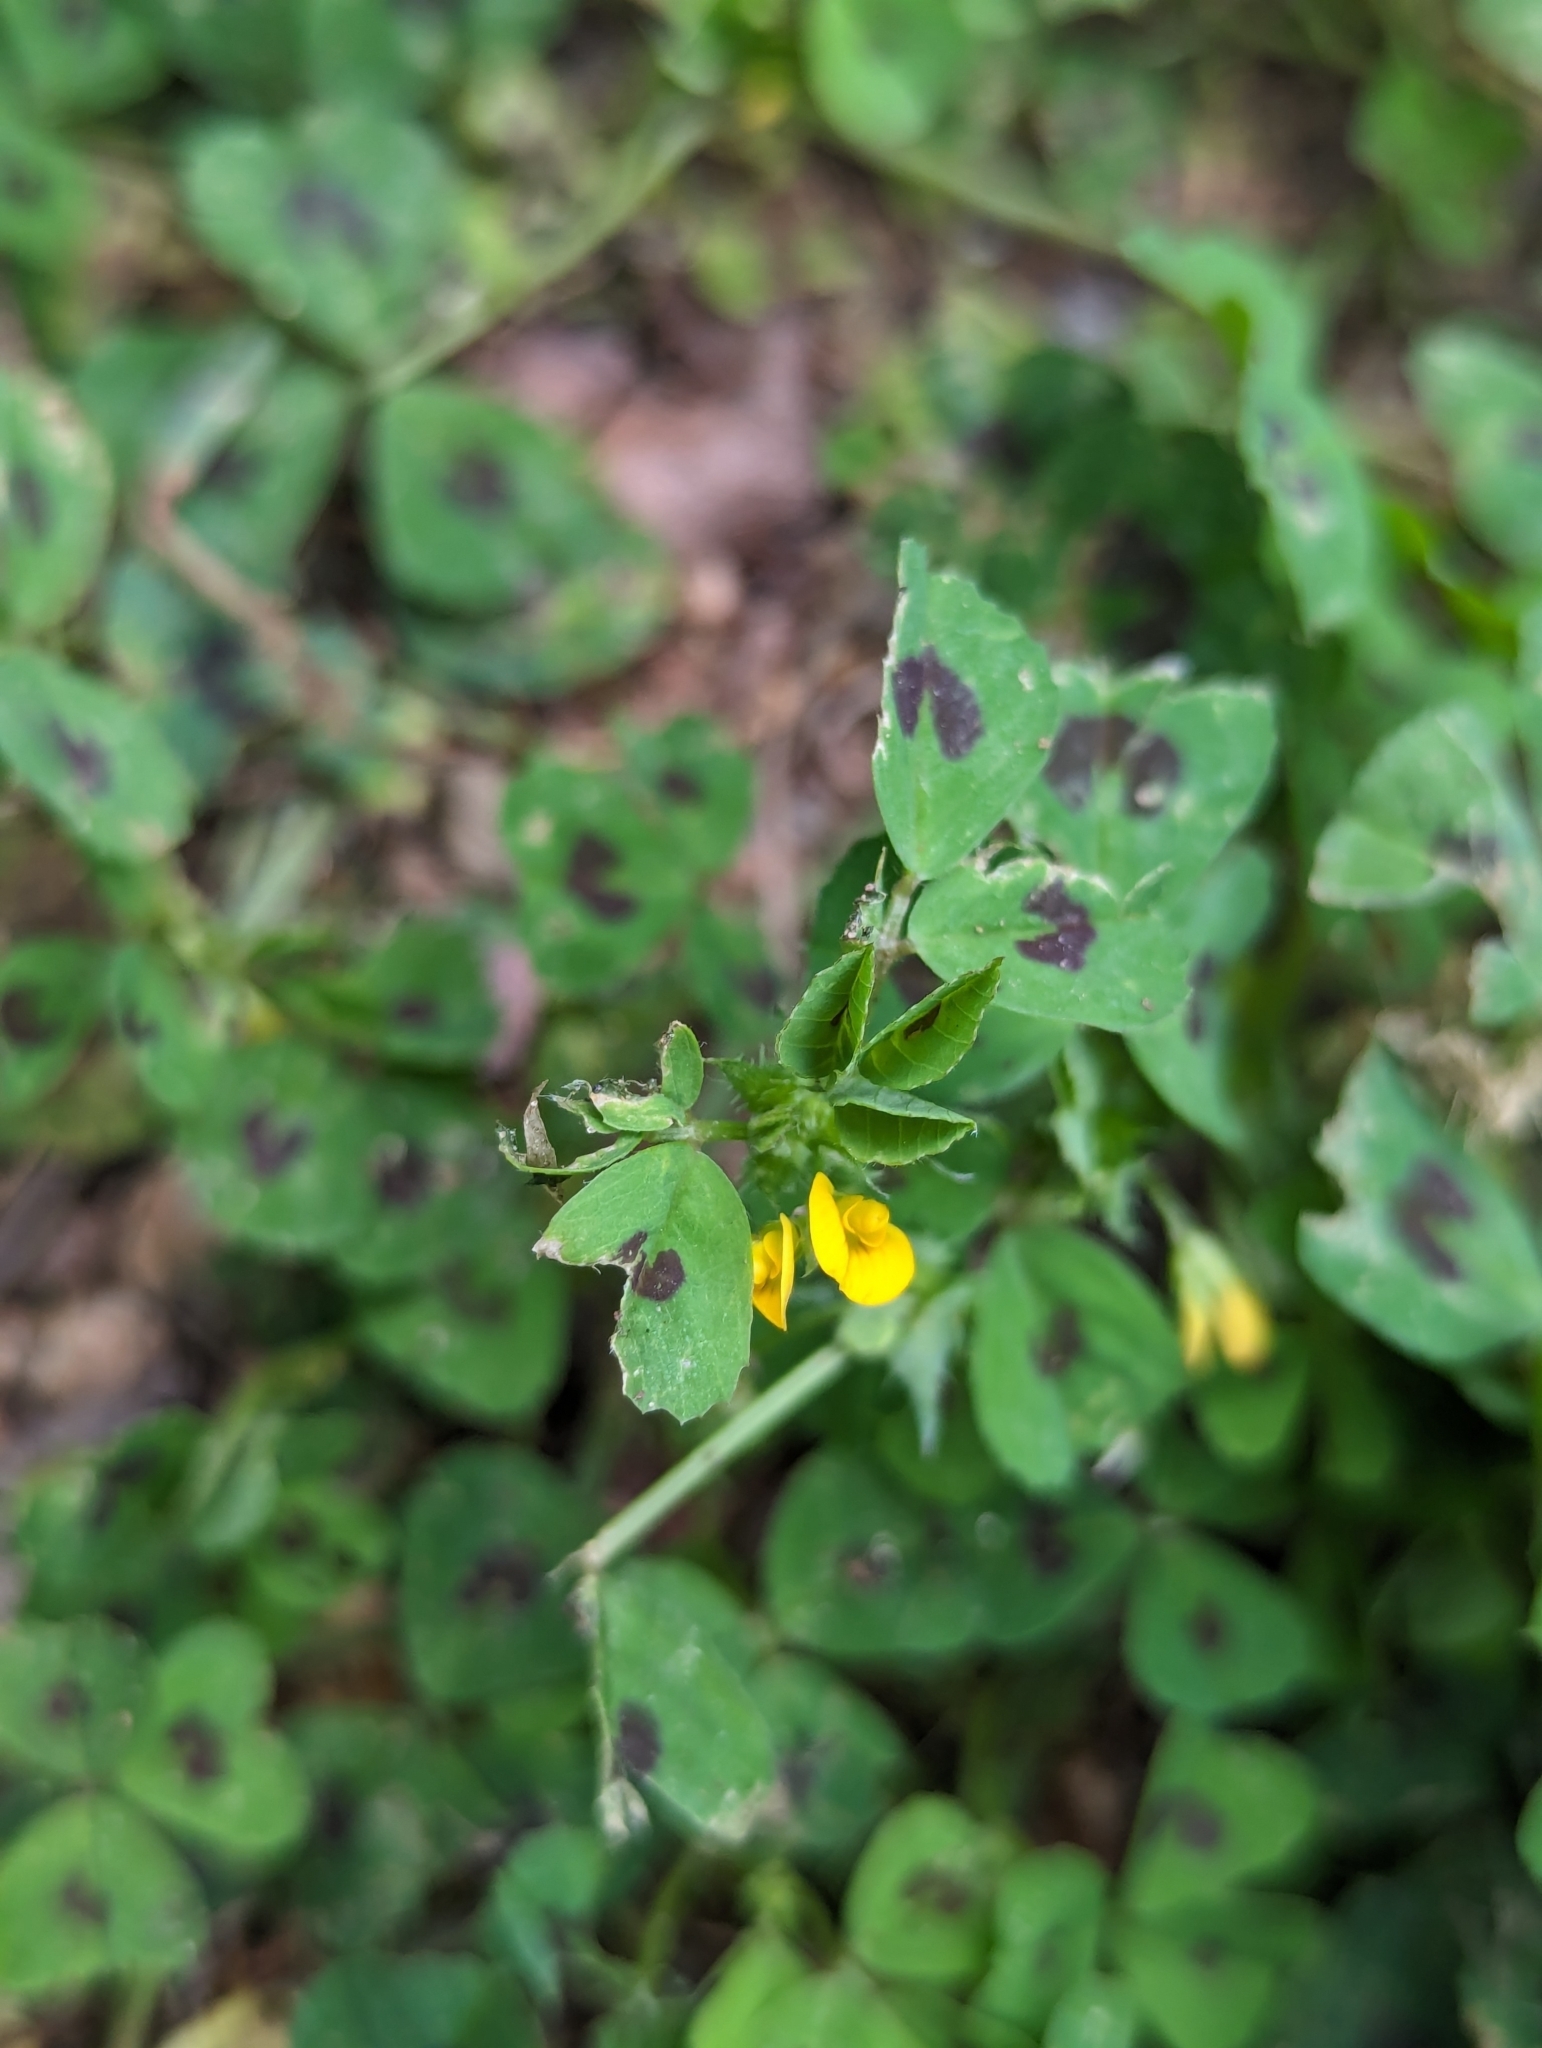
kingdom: Plantae
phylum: Tracheophyta
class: Magnoliopsida
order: Fabales
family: Fabaceae
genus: Medicago
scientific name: Medicago arabica
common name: Spotted medick
